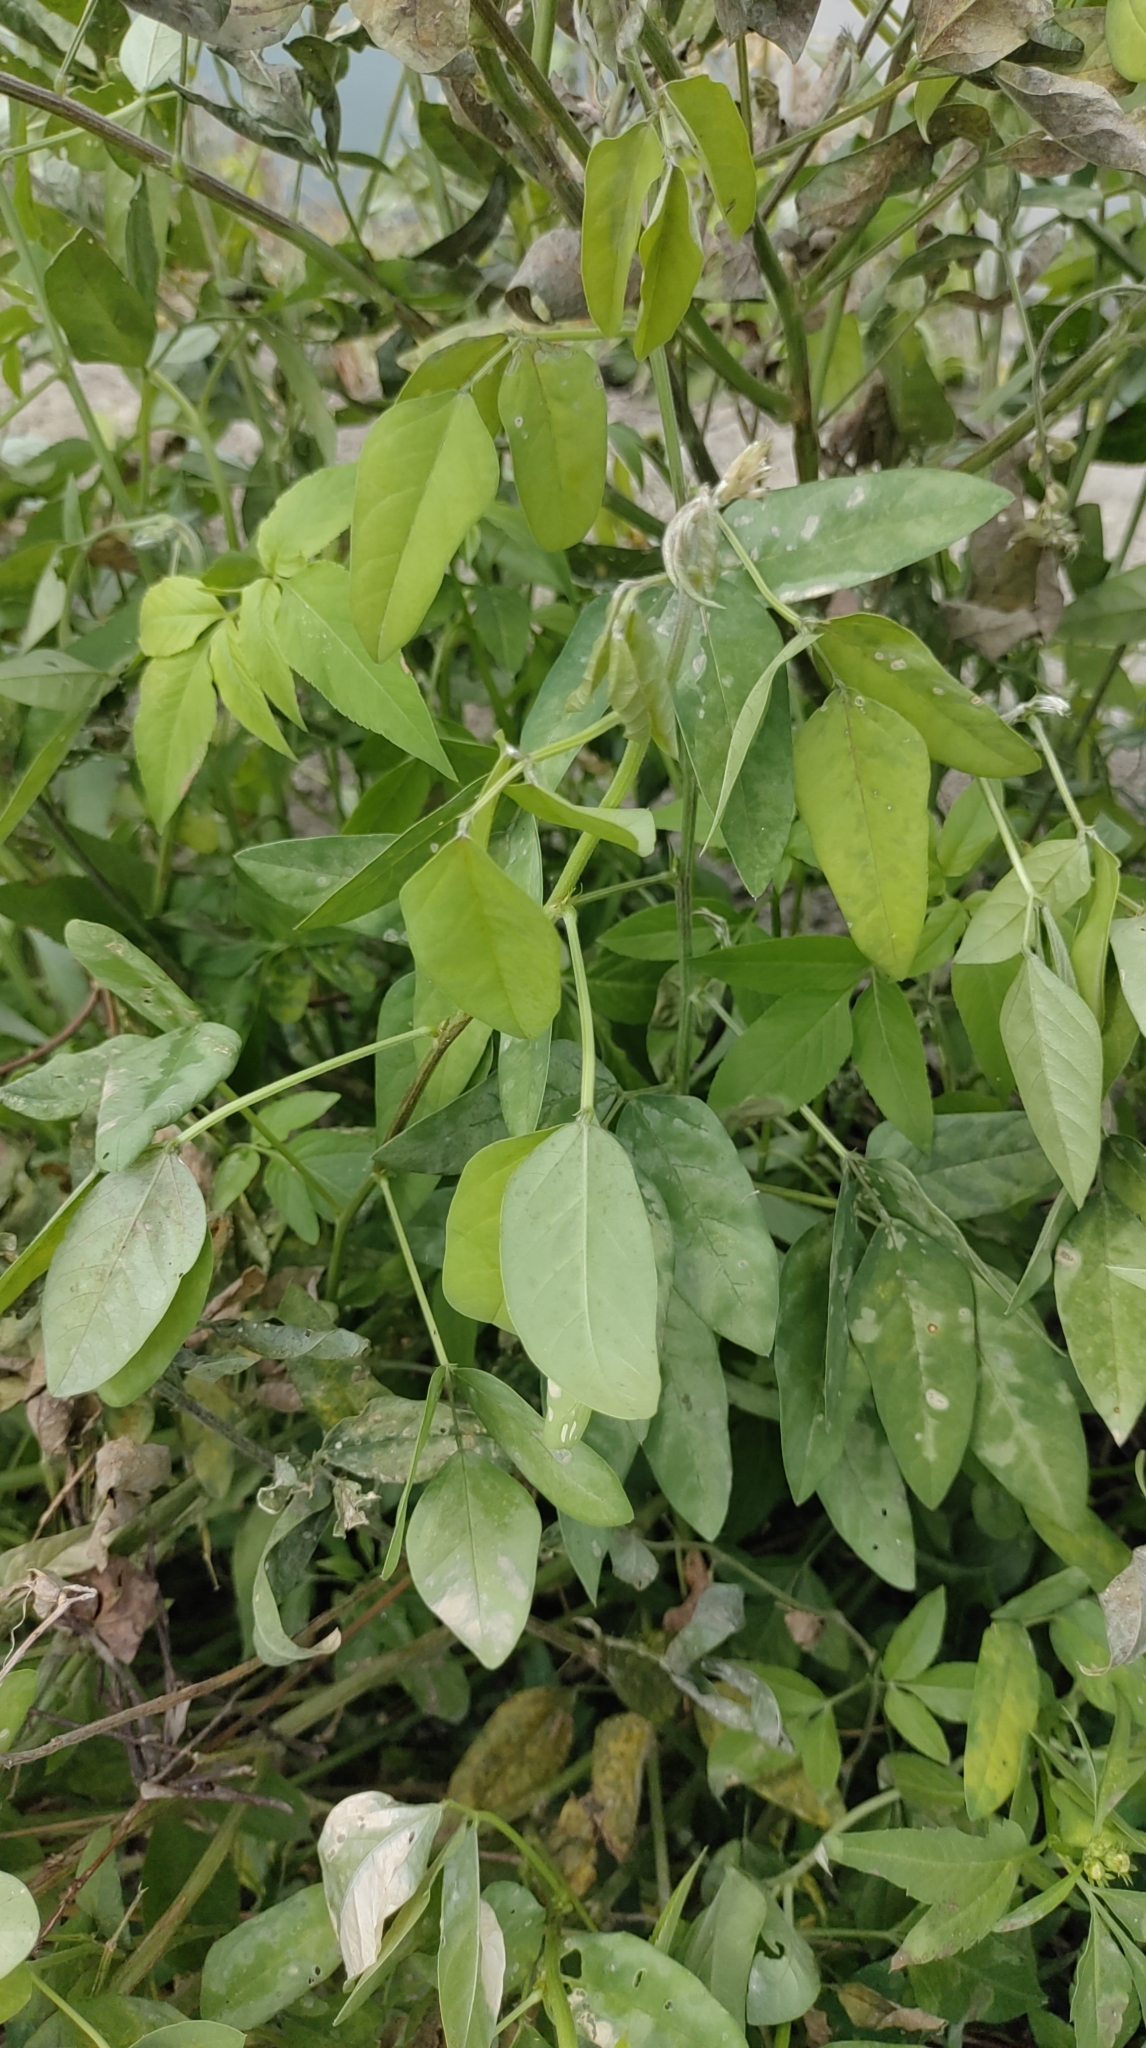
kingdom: Plantae
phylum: Tracheophyta
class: Magnoliopsida
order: Fabales
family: Fabaceae
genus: Macroptilium
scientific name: Macroptilium lathyroides
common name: Wild bushbean
